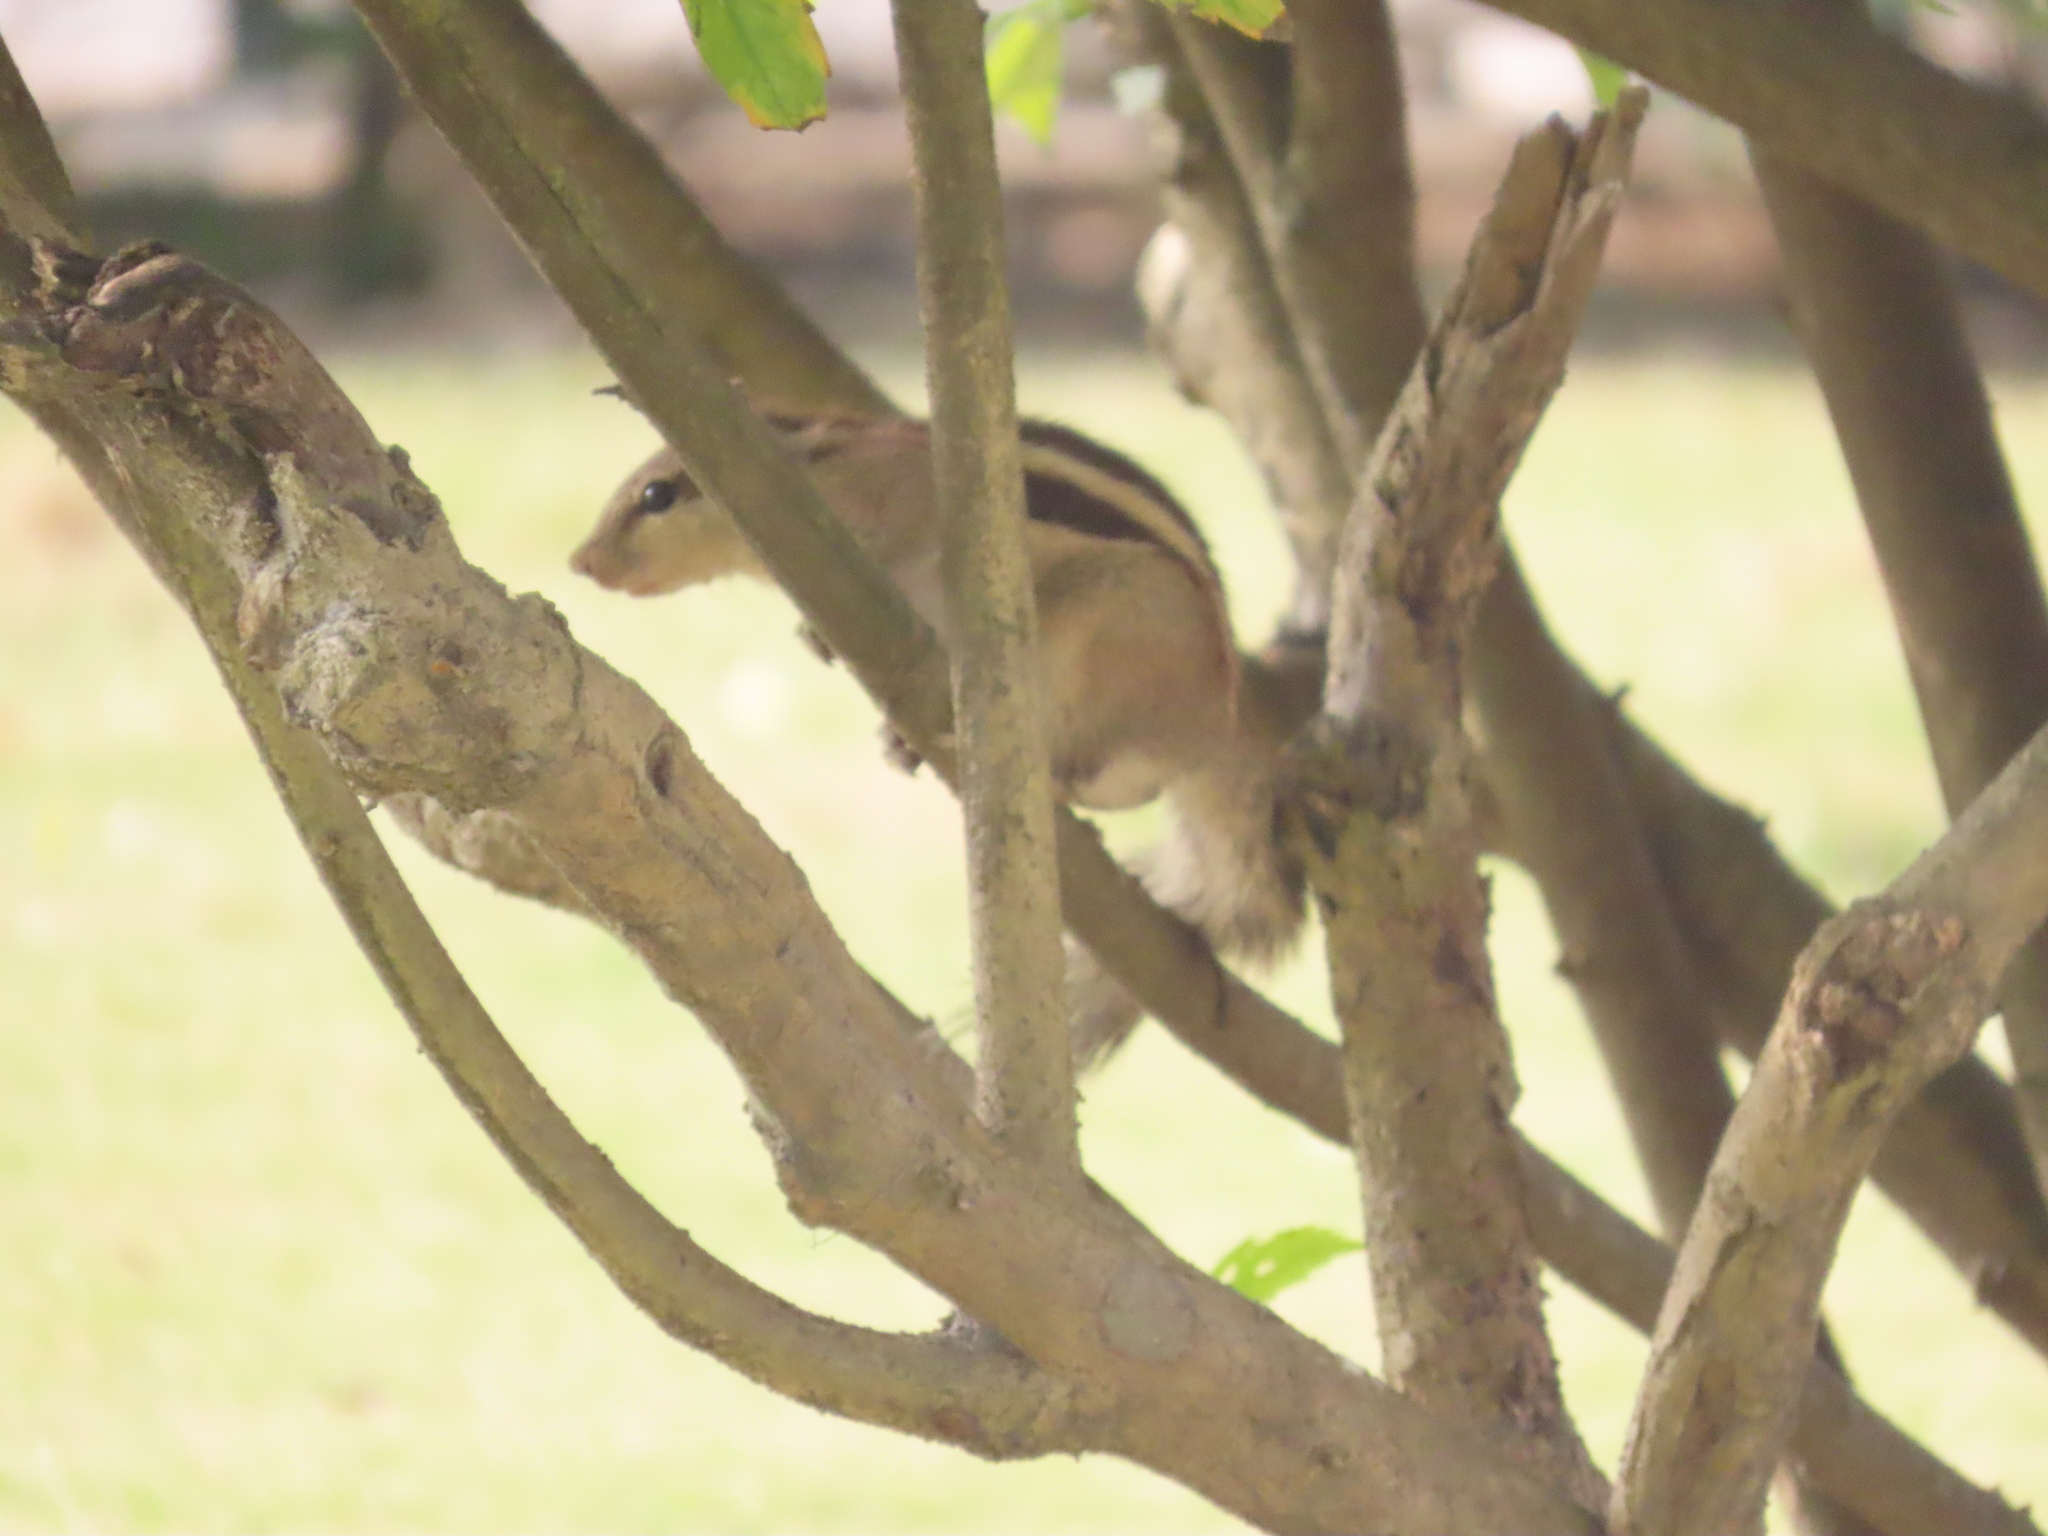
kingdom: Animalia
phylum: Chordata
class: Mammalia
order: Rodentia
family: Sciuridae
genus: Funambulus
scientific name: Funambulus pennantii
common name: Northern palm squirrel
